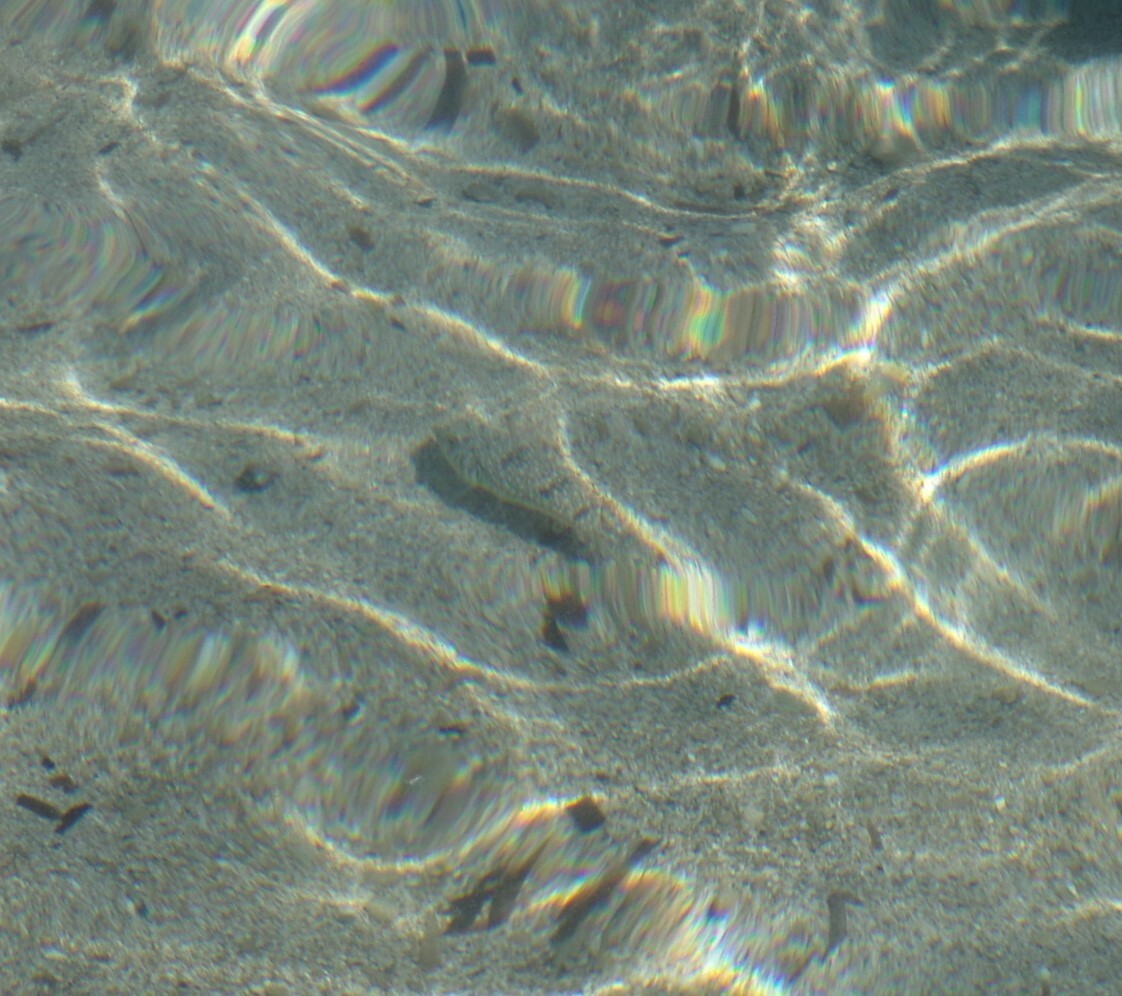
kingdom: Animalia
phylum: Chordata
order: Tetraodontiformes
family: Tetraodontidae
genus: Torquigener
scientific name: Torquigener flavimaculosus
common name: Studded pufferfish
